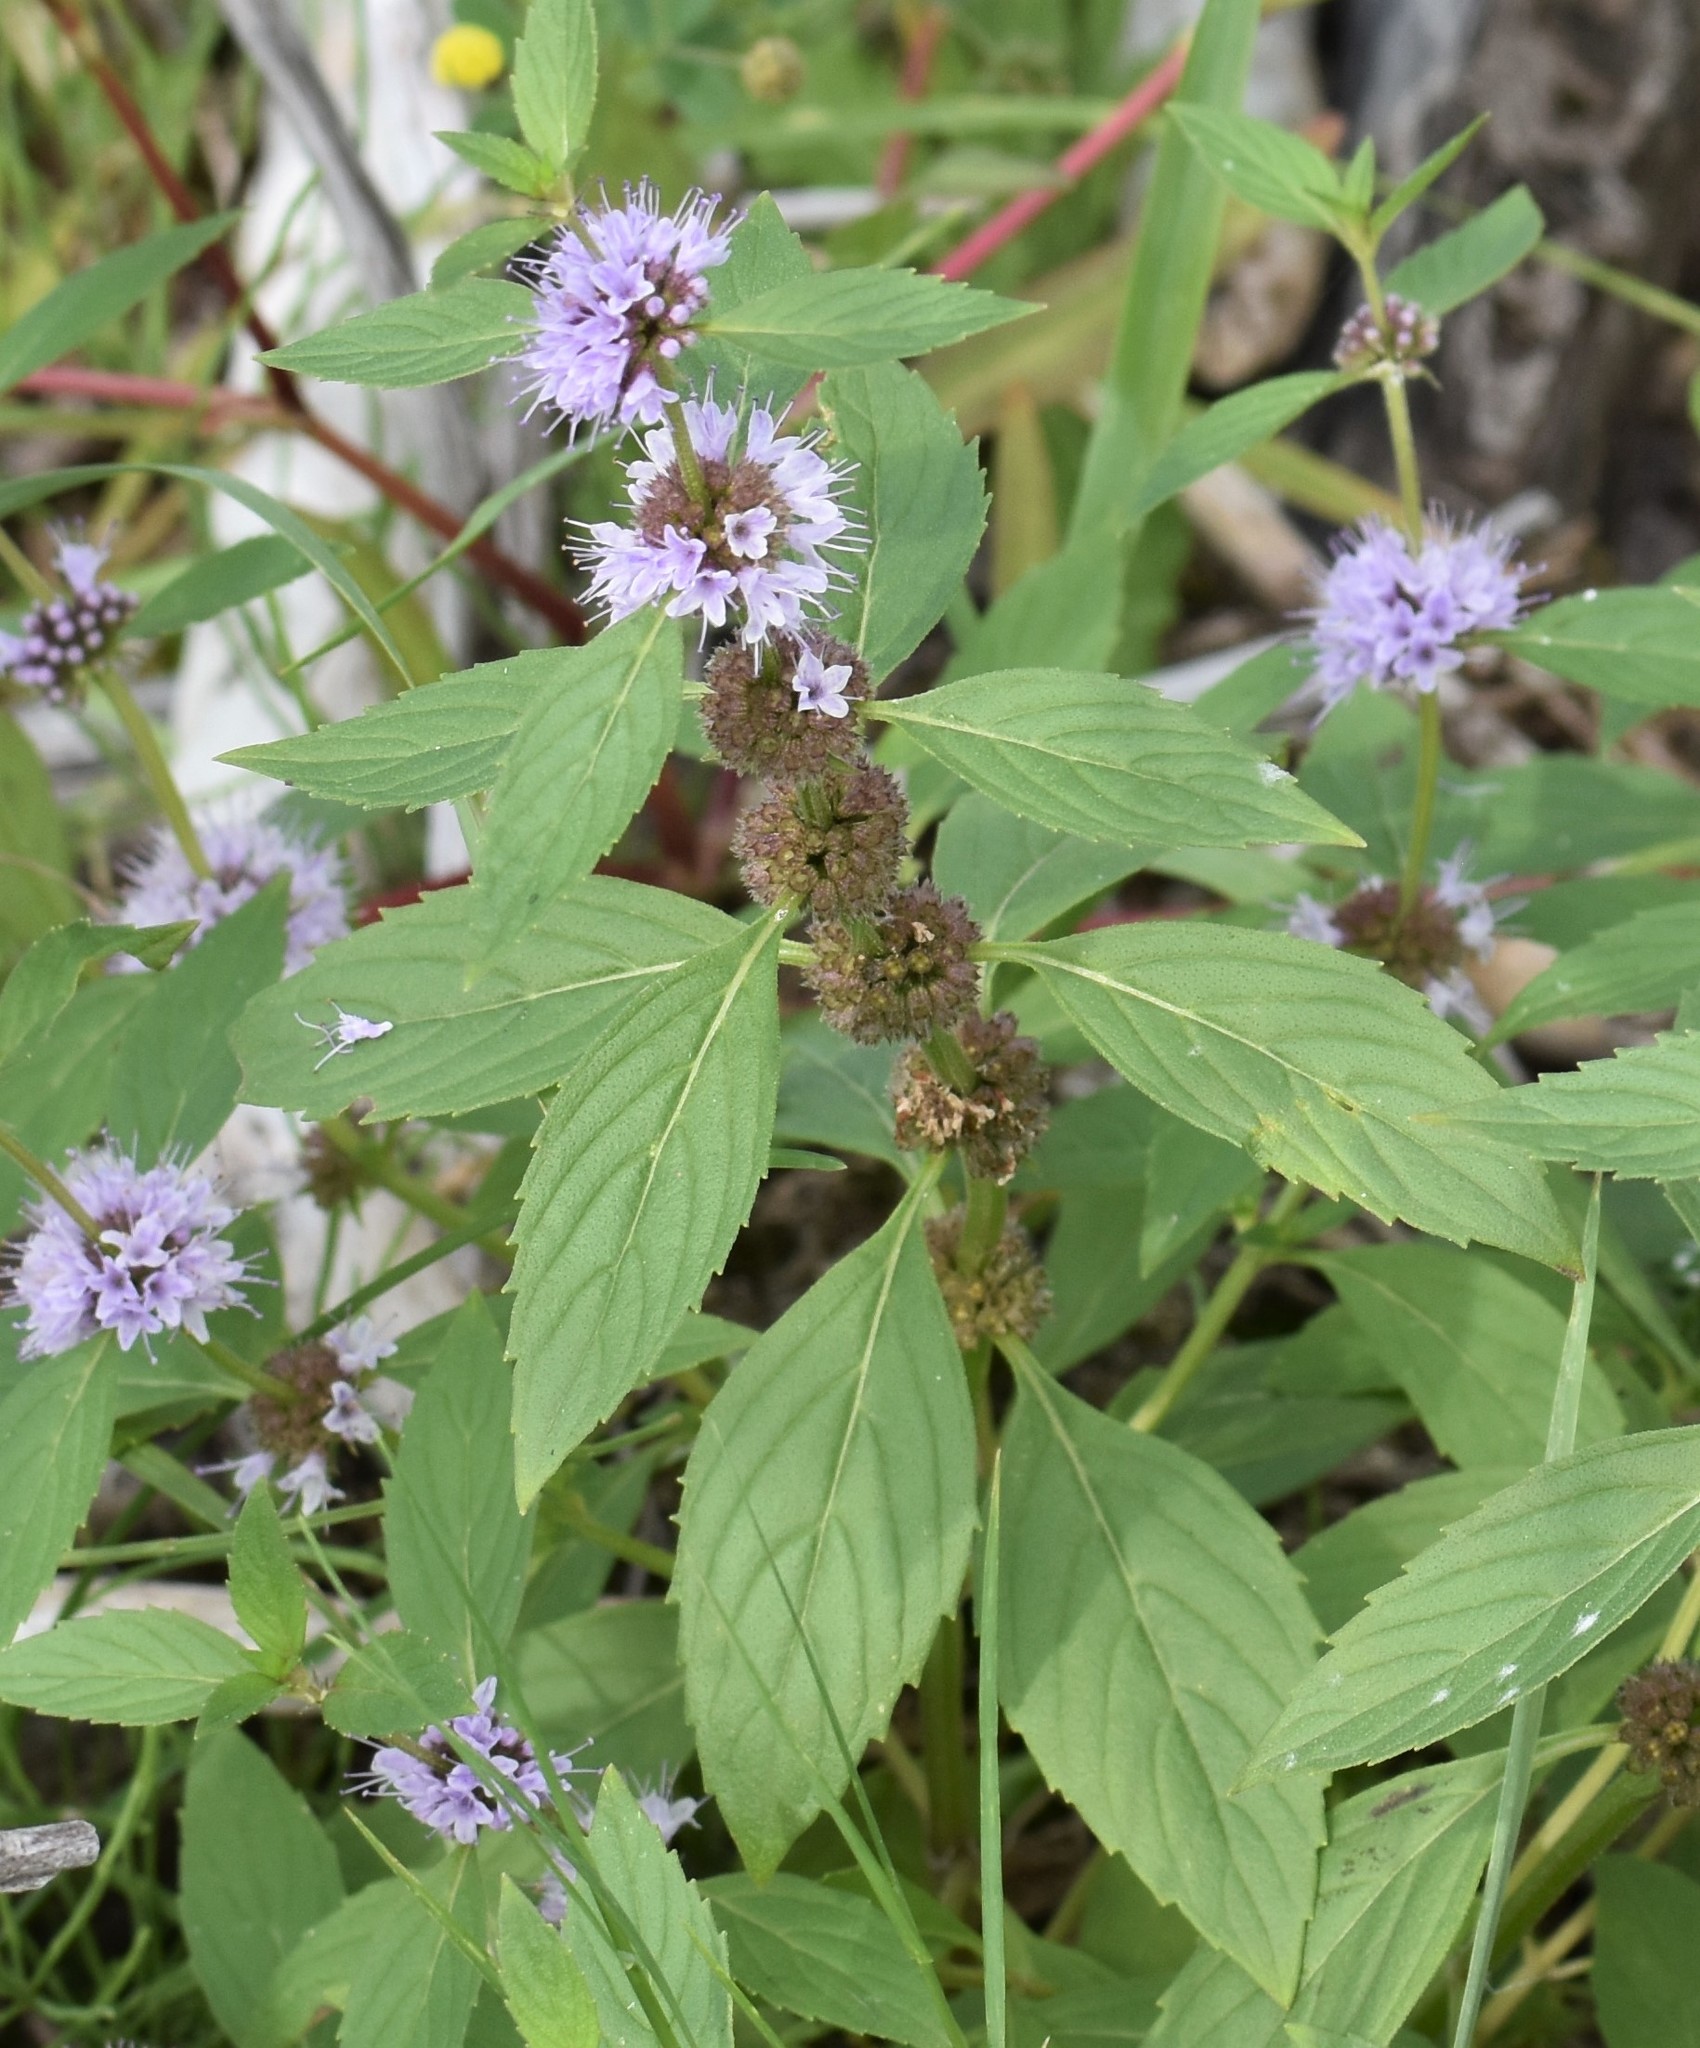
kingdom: Plantae
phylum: Tracheophyta
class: Magnoliopsida
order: Lamiales
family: Lamiaceae
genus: Mentha
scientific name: Mentha canadensis
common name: American corn mint
